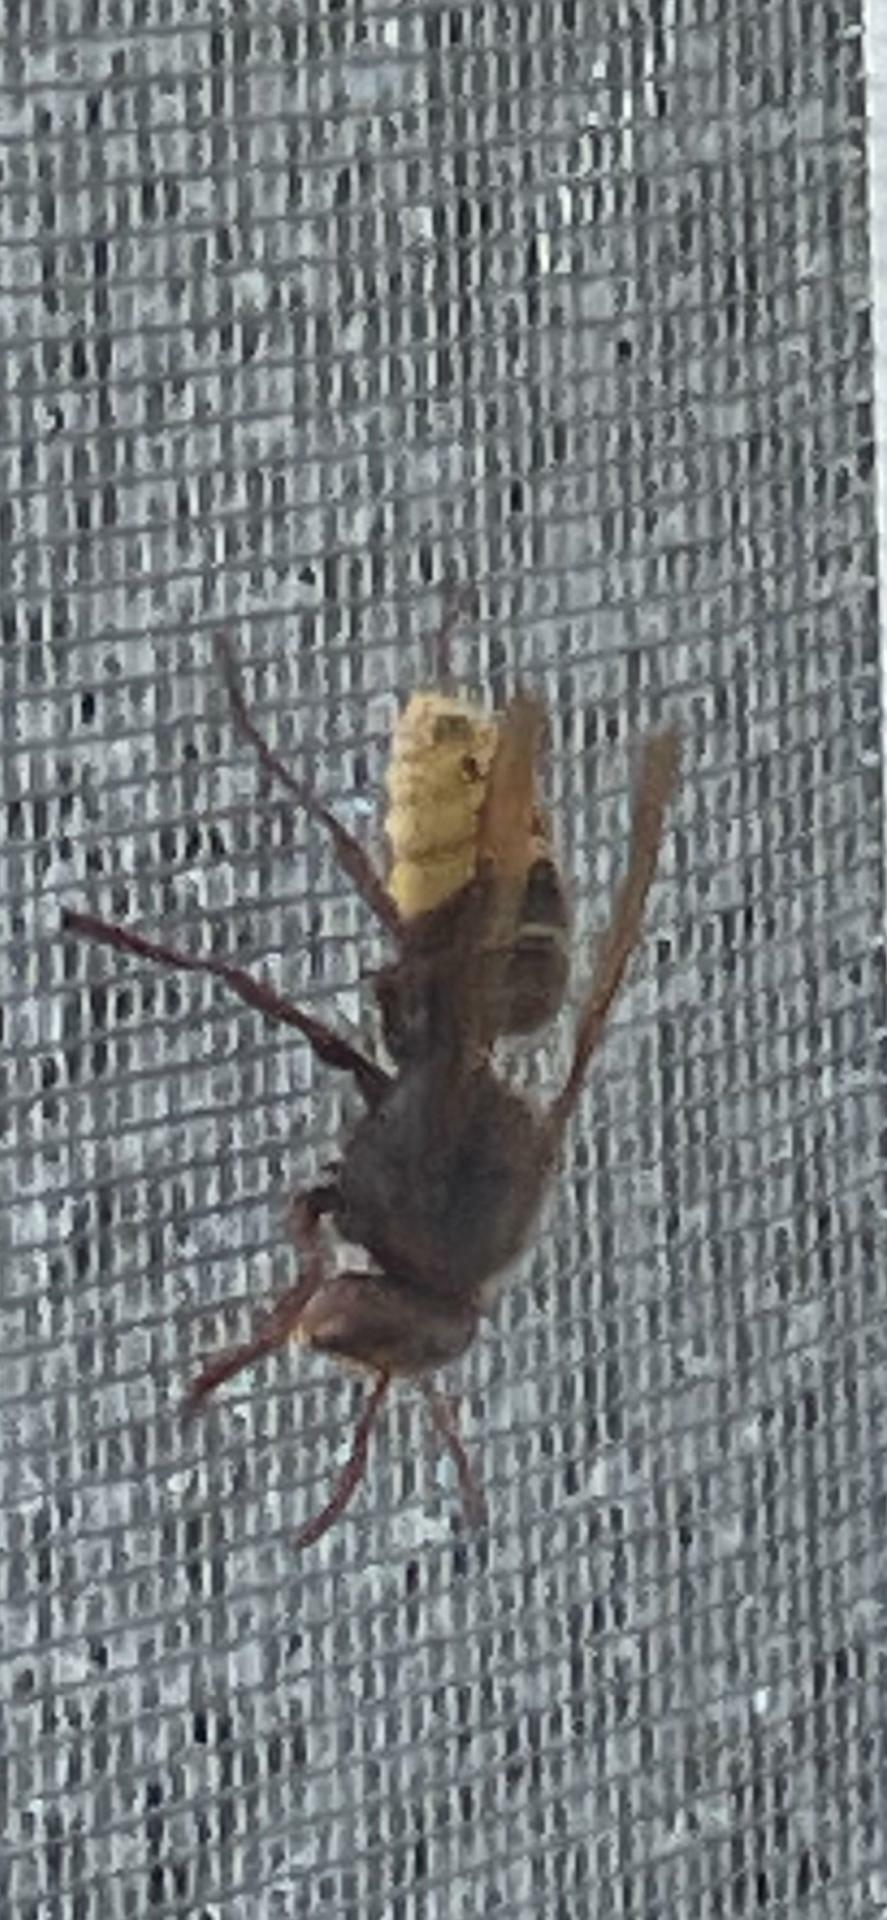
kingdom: Animalia
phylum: Arthropoda
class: Insecta
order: Hymenoptera
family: Vespidae
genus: Vespa
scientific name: Vespa crabro
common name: Hornet
